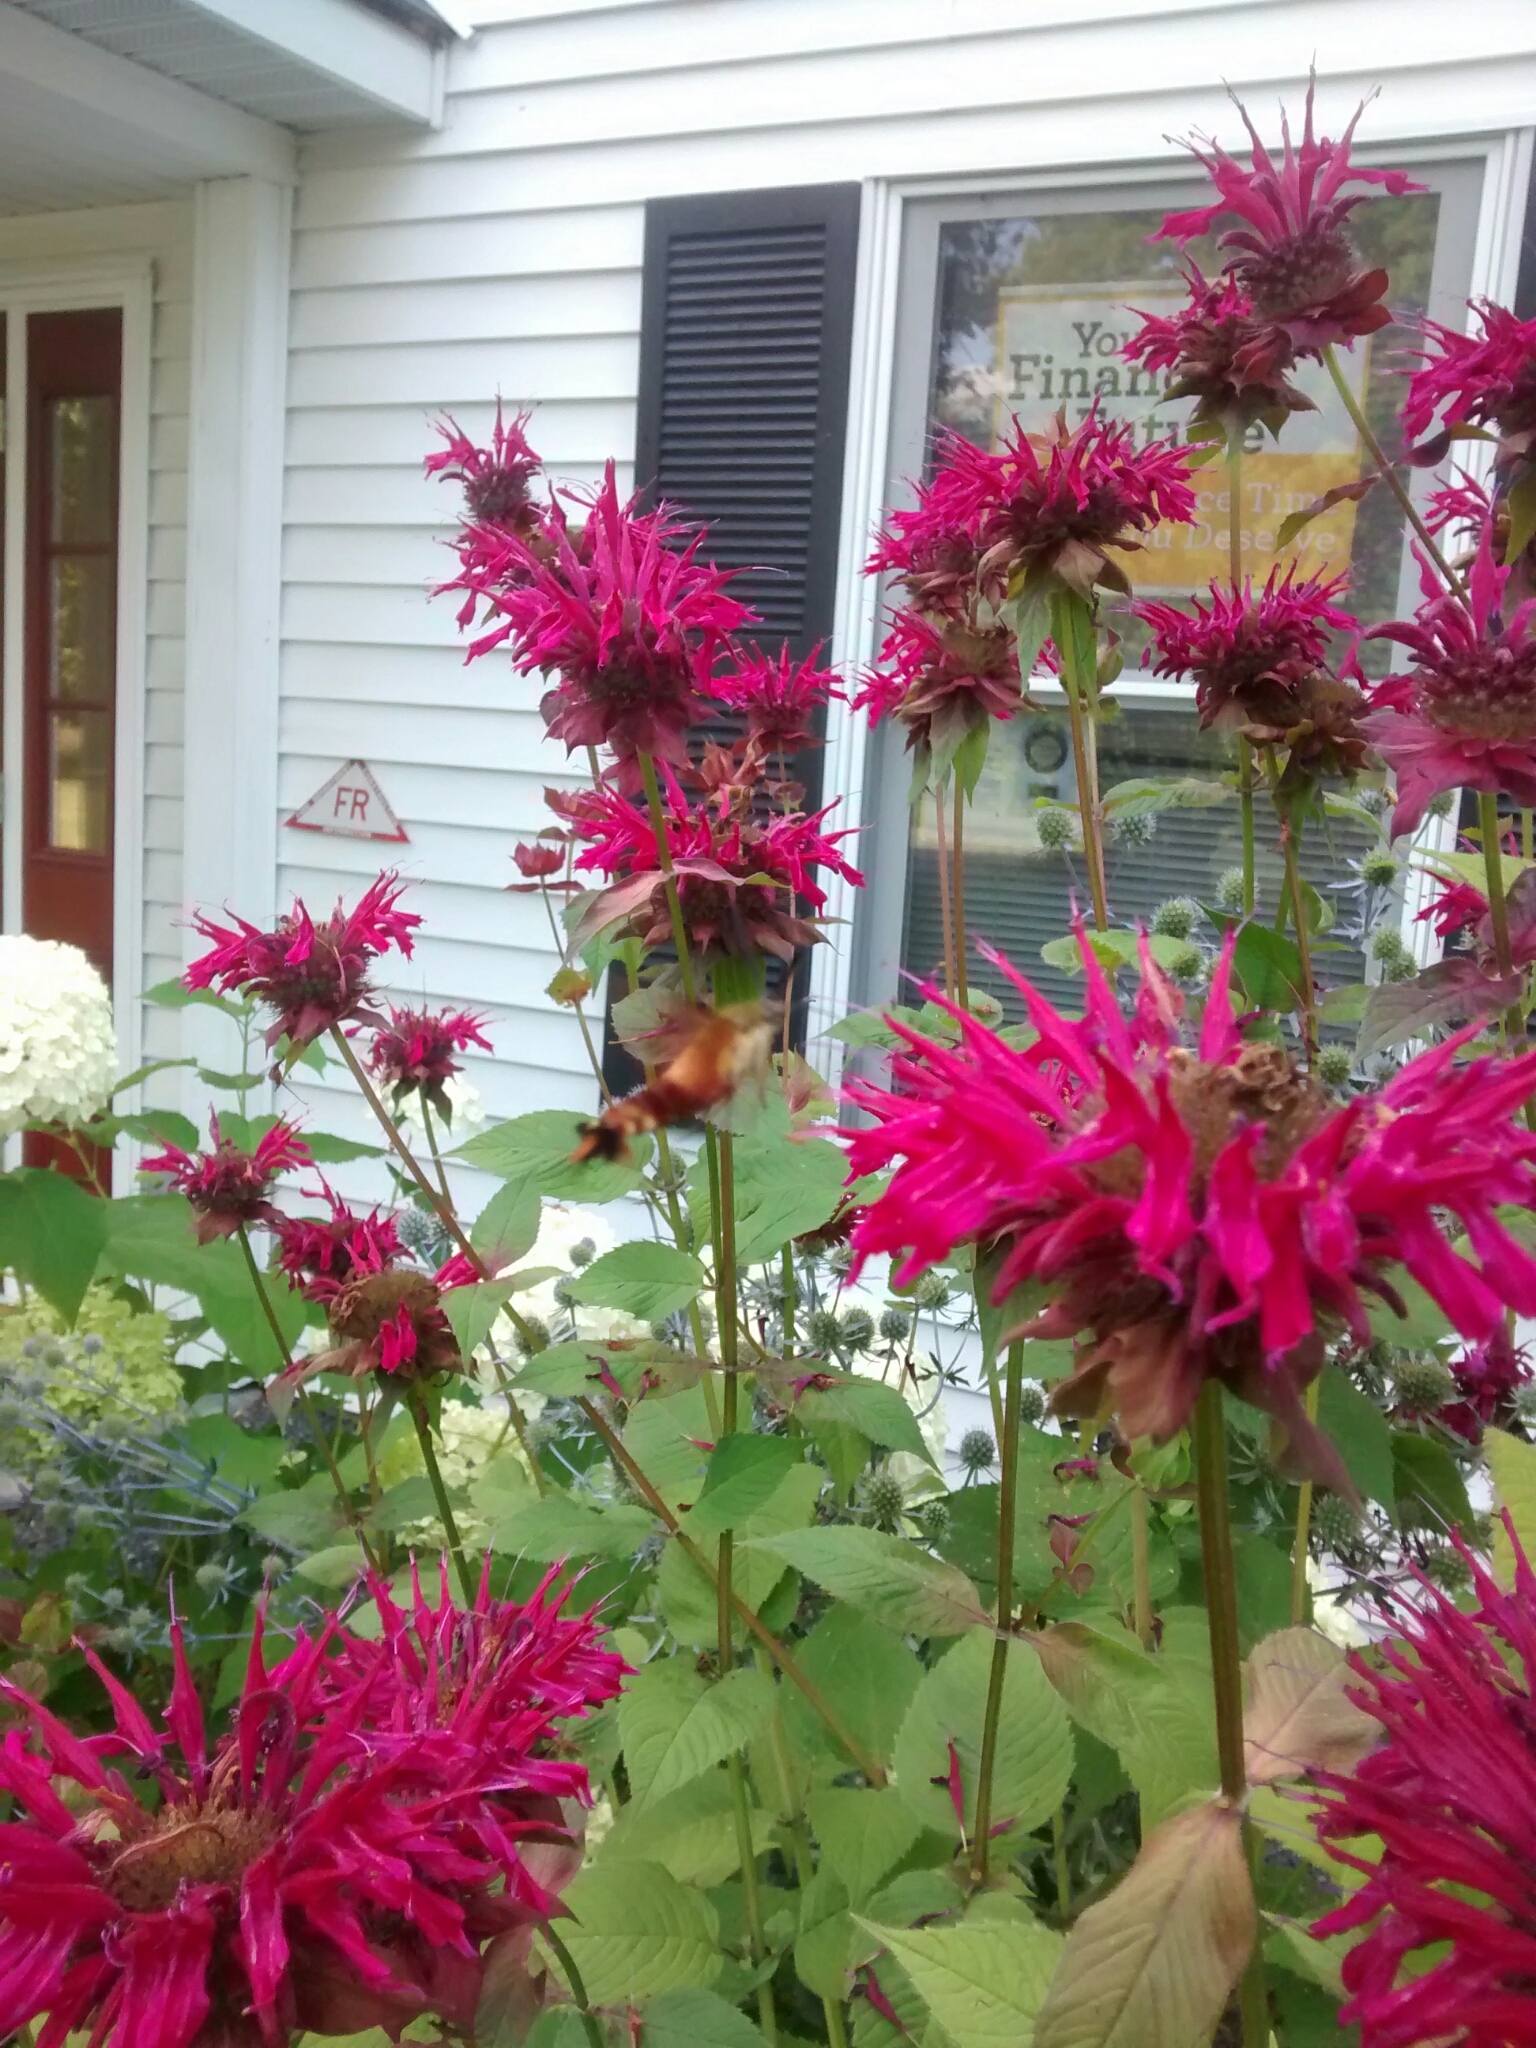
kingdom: Animalia
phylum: Arthropoda
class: Insecta
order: Lepidoptera
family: Sphingidae
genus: Hemaris
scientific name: Hemaris thysbe
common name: Common clear-wing
